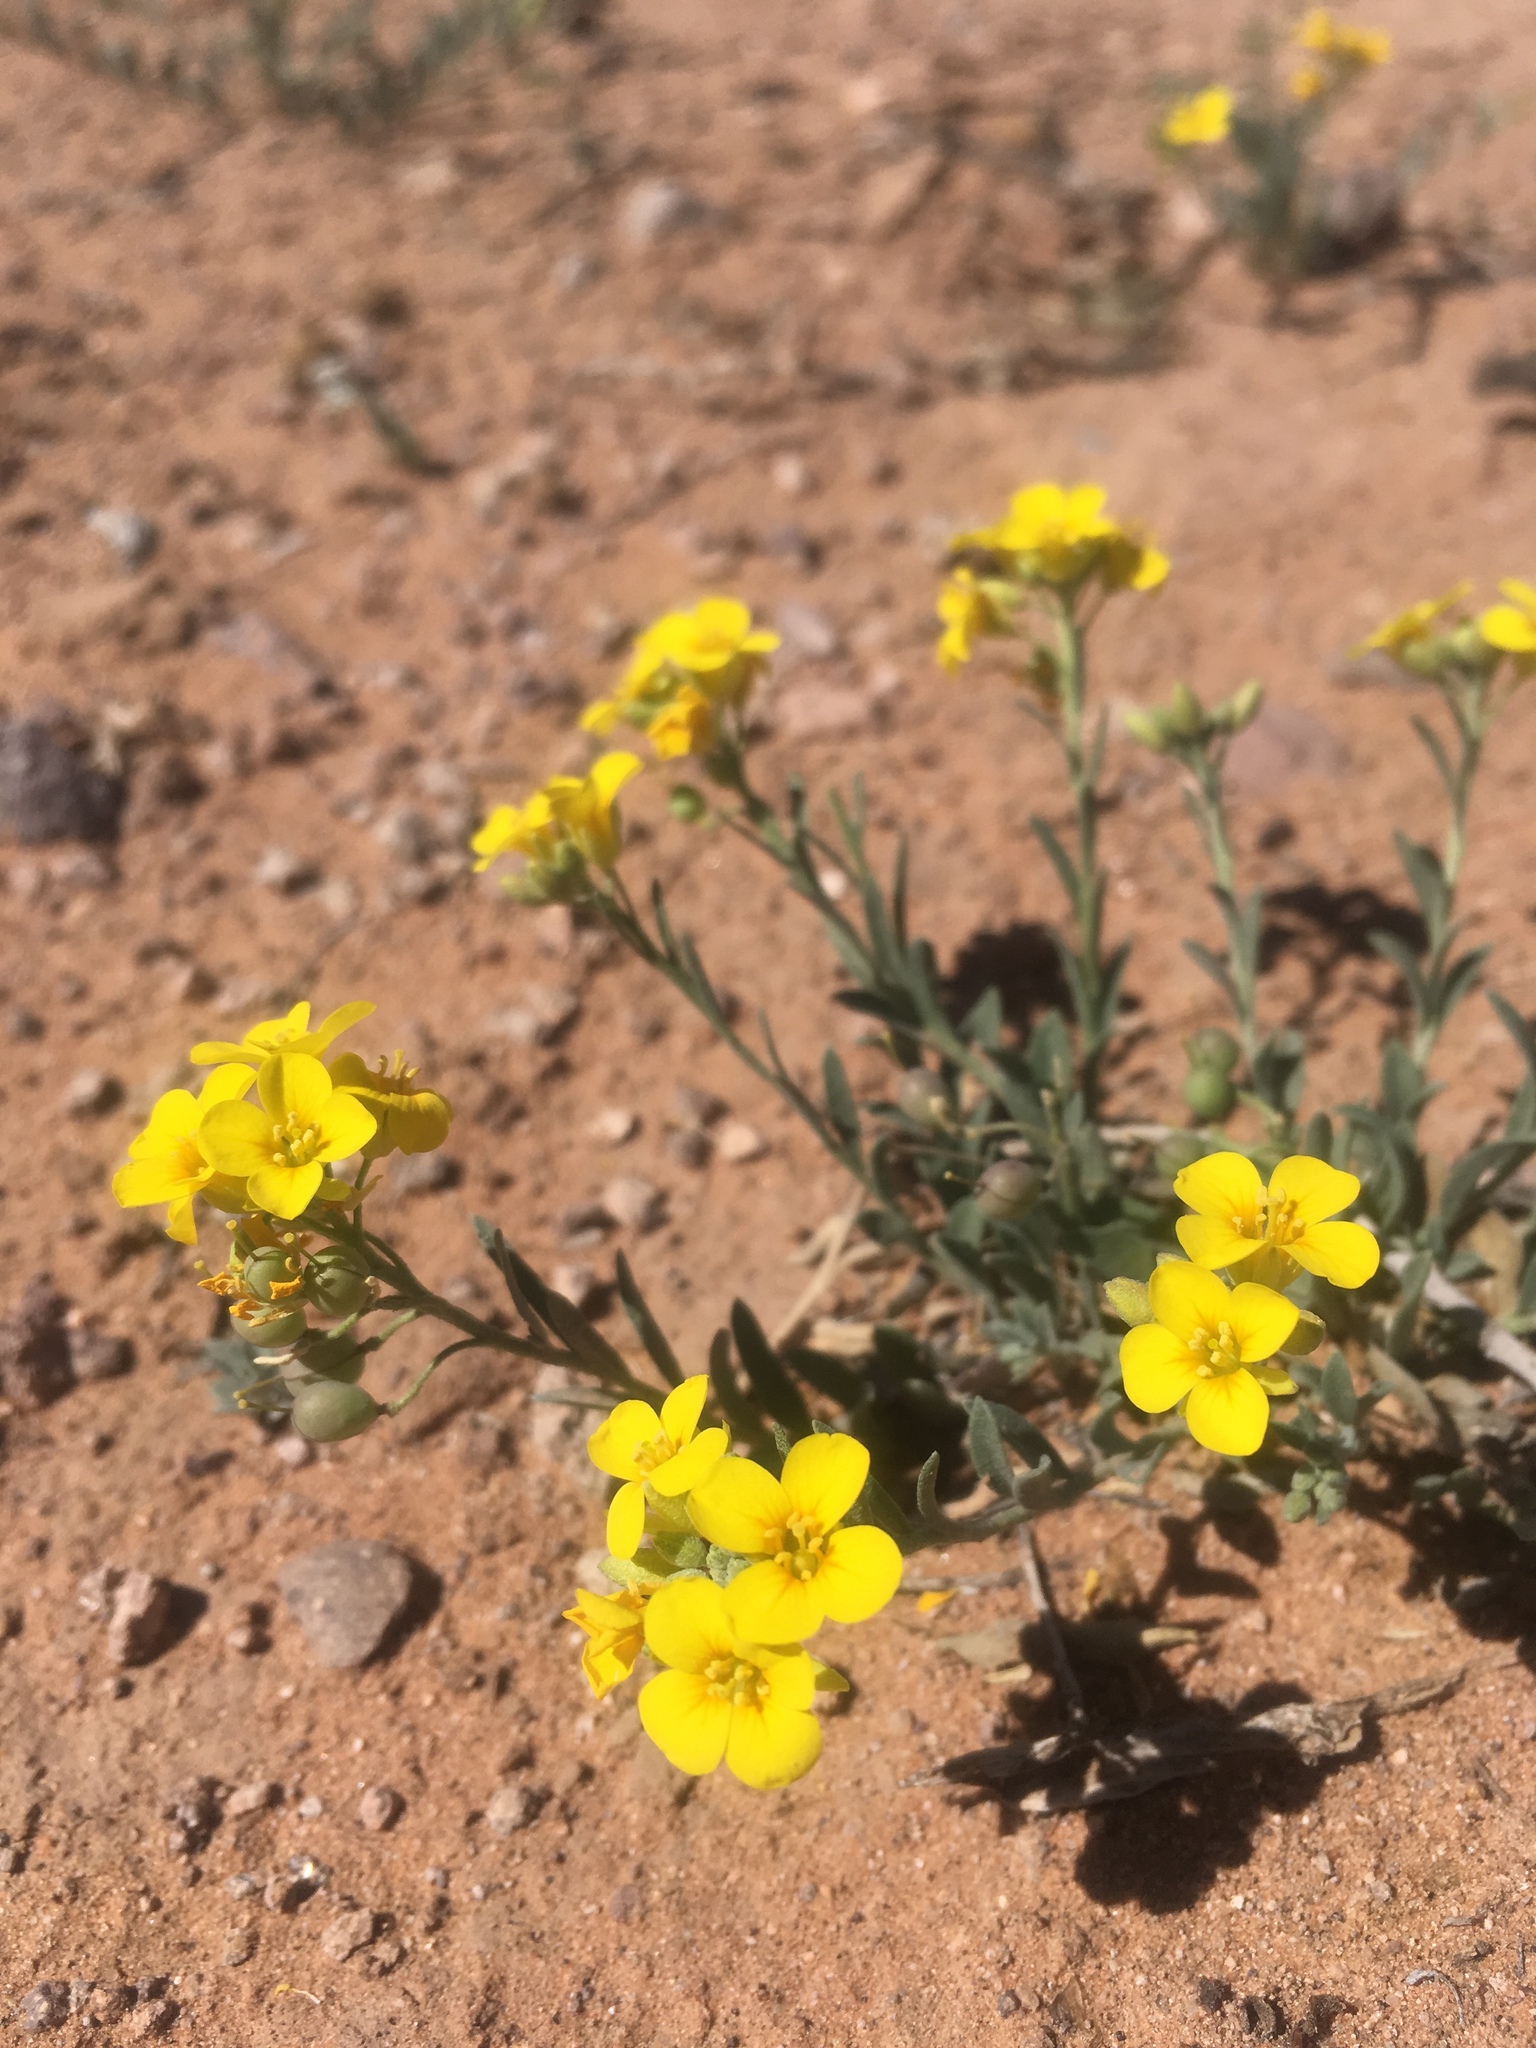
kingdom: Plantae
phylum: Tracheophyta
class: Magnoliopsida
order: Brassicales
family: Brassicaceae
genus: Physaria
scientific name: Physaria gordonii
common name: Gordon's bladderpod
